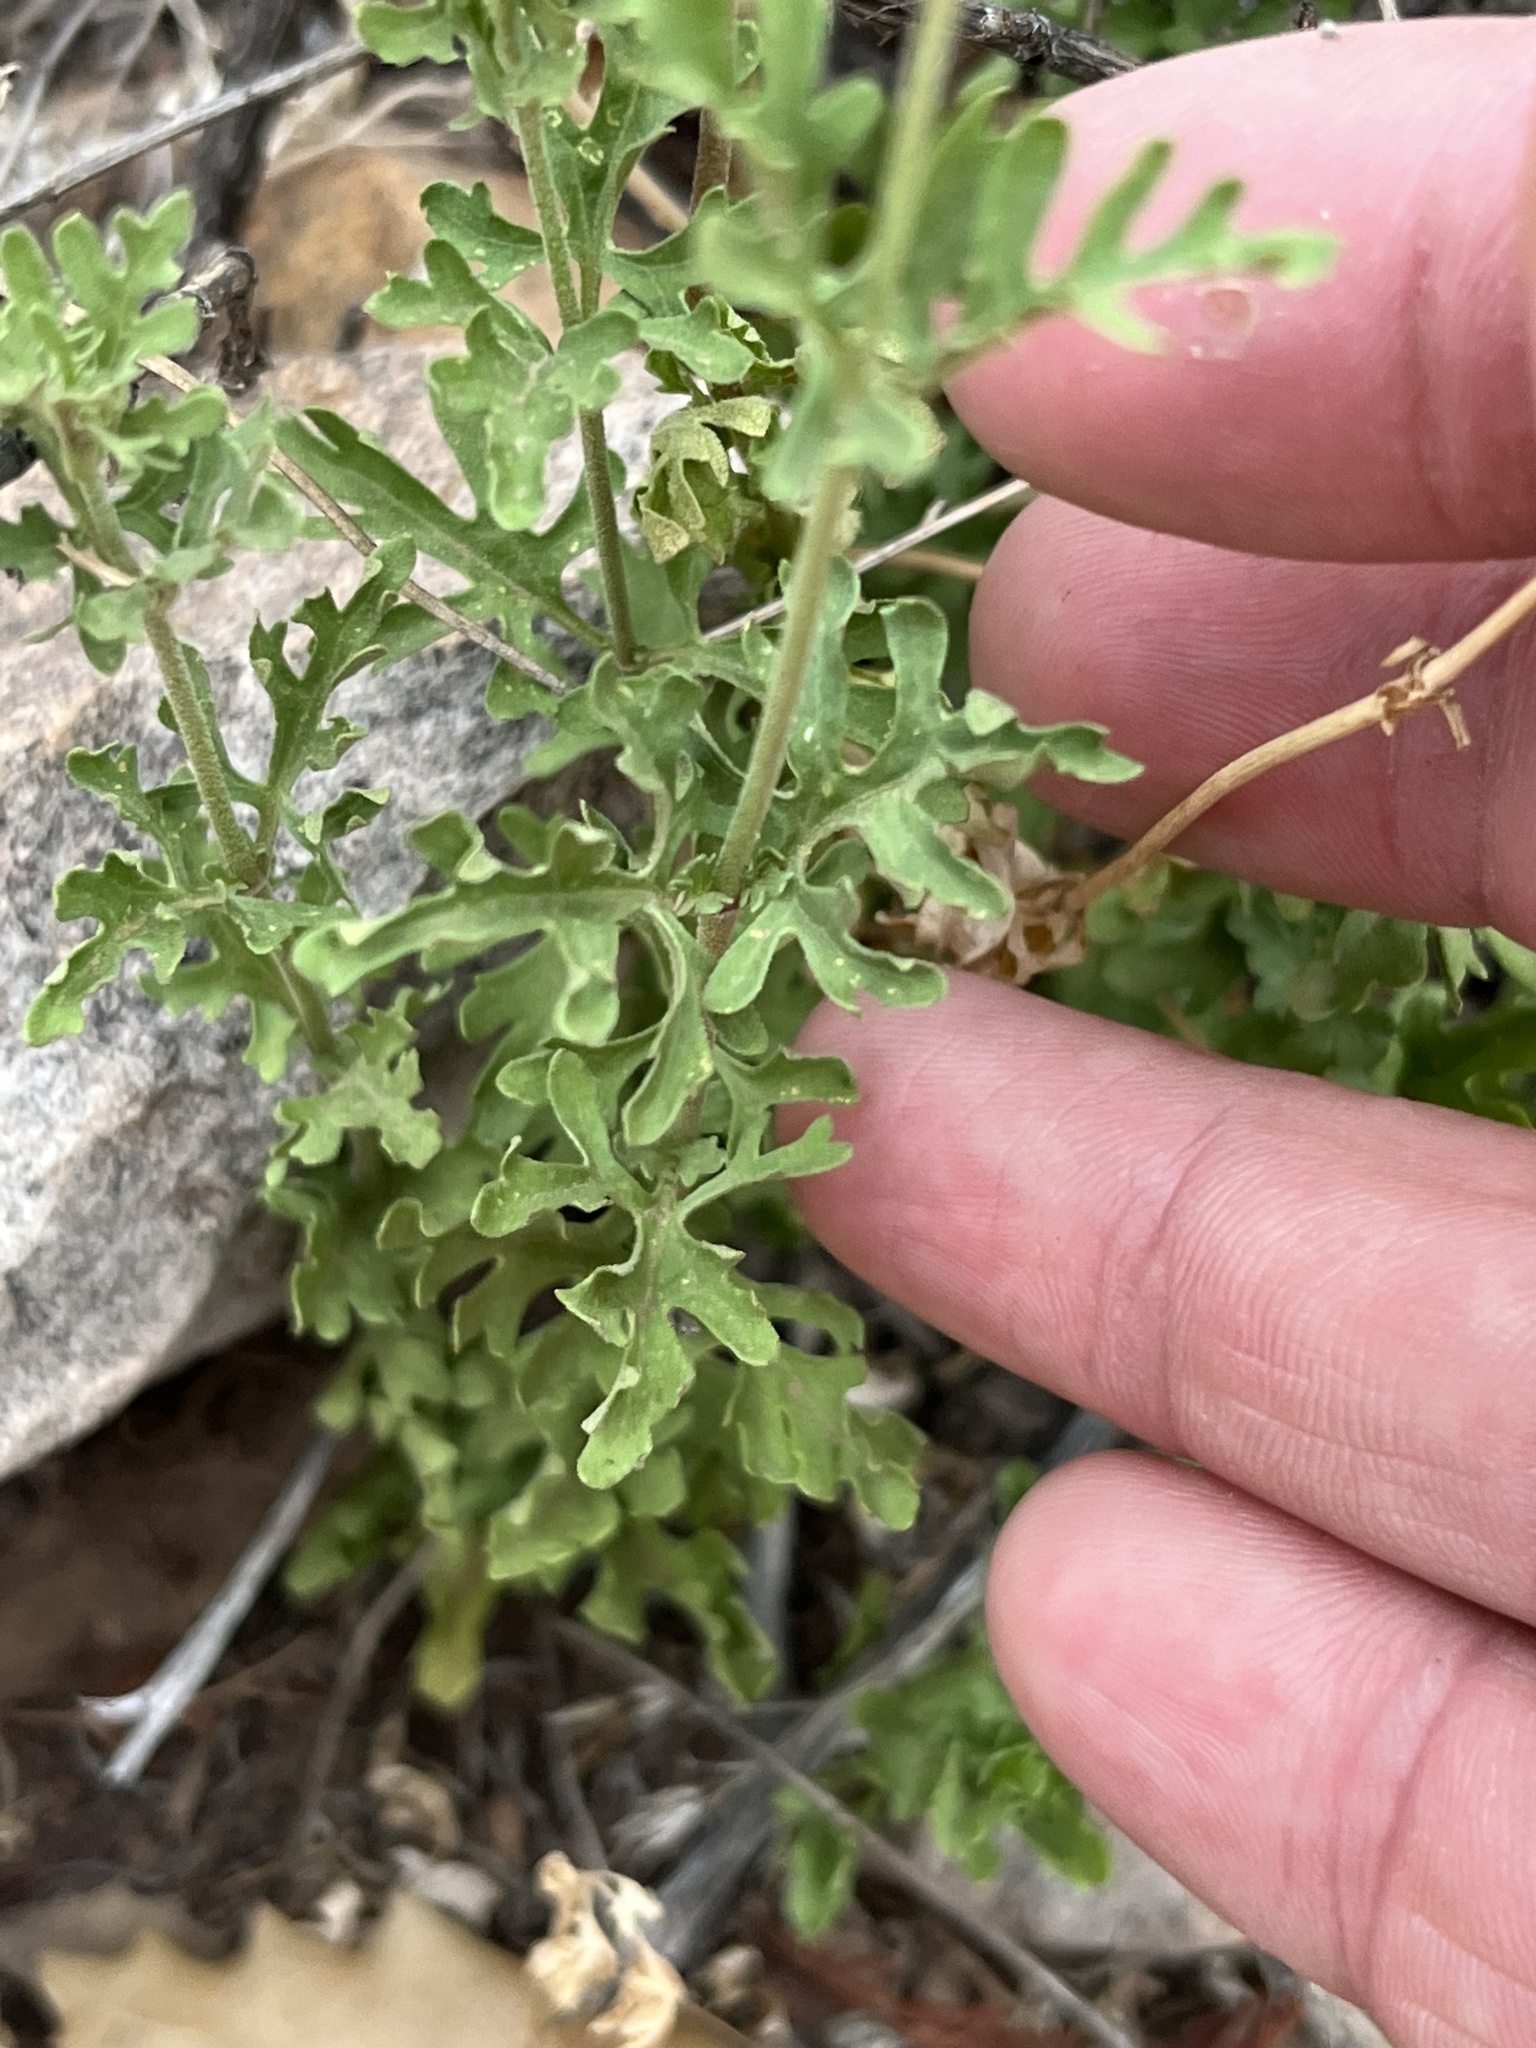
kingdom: Plantae
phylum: Tracheophyta
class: Magnoliopsida
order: Asterales
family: Asteraceae
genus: Conoclinium
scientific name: Conoclinium dissectum
